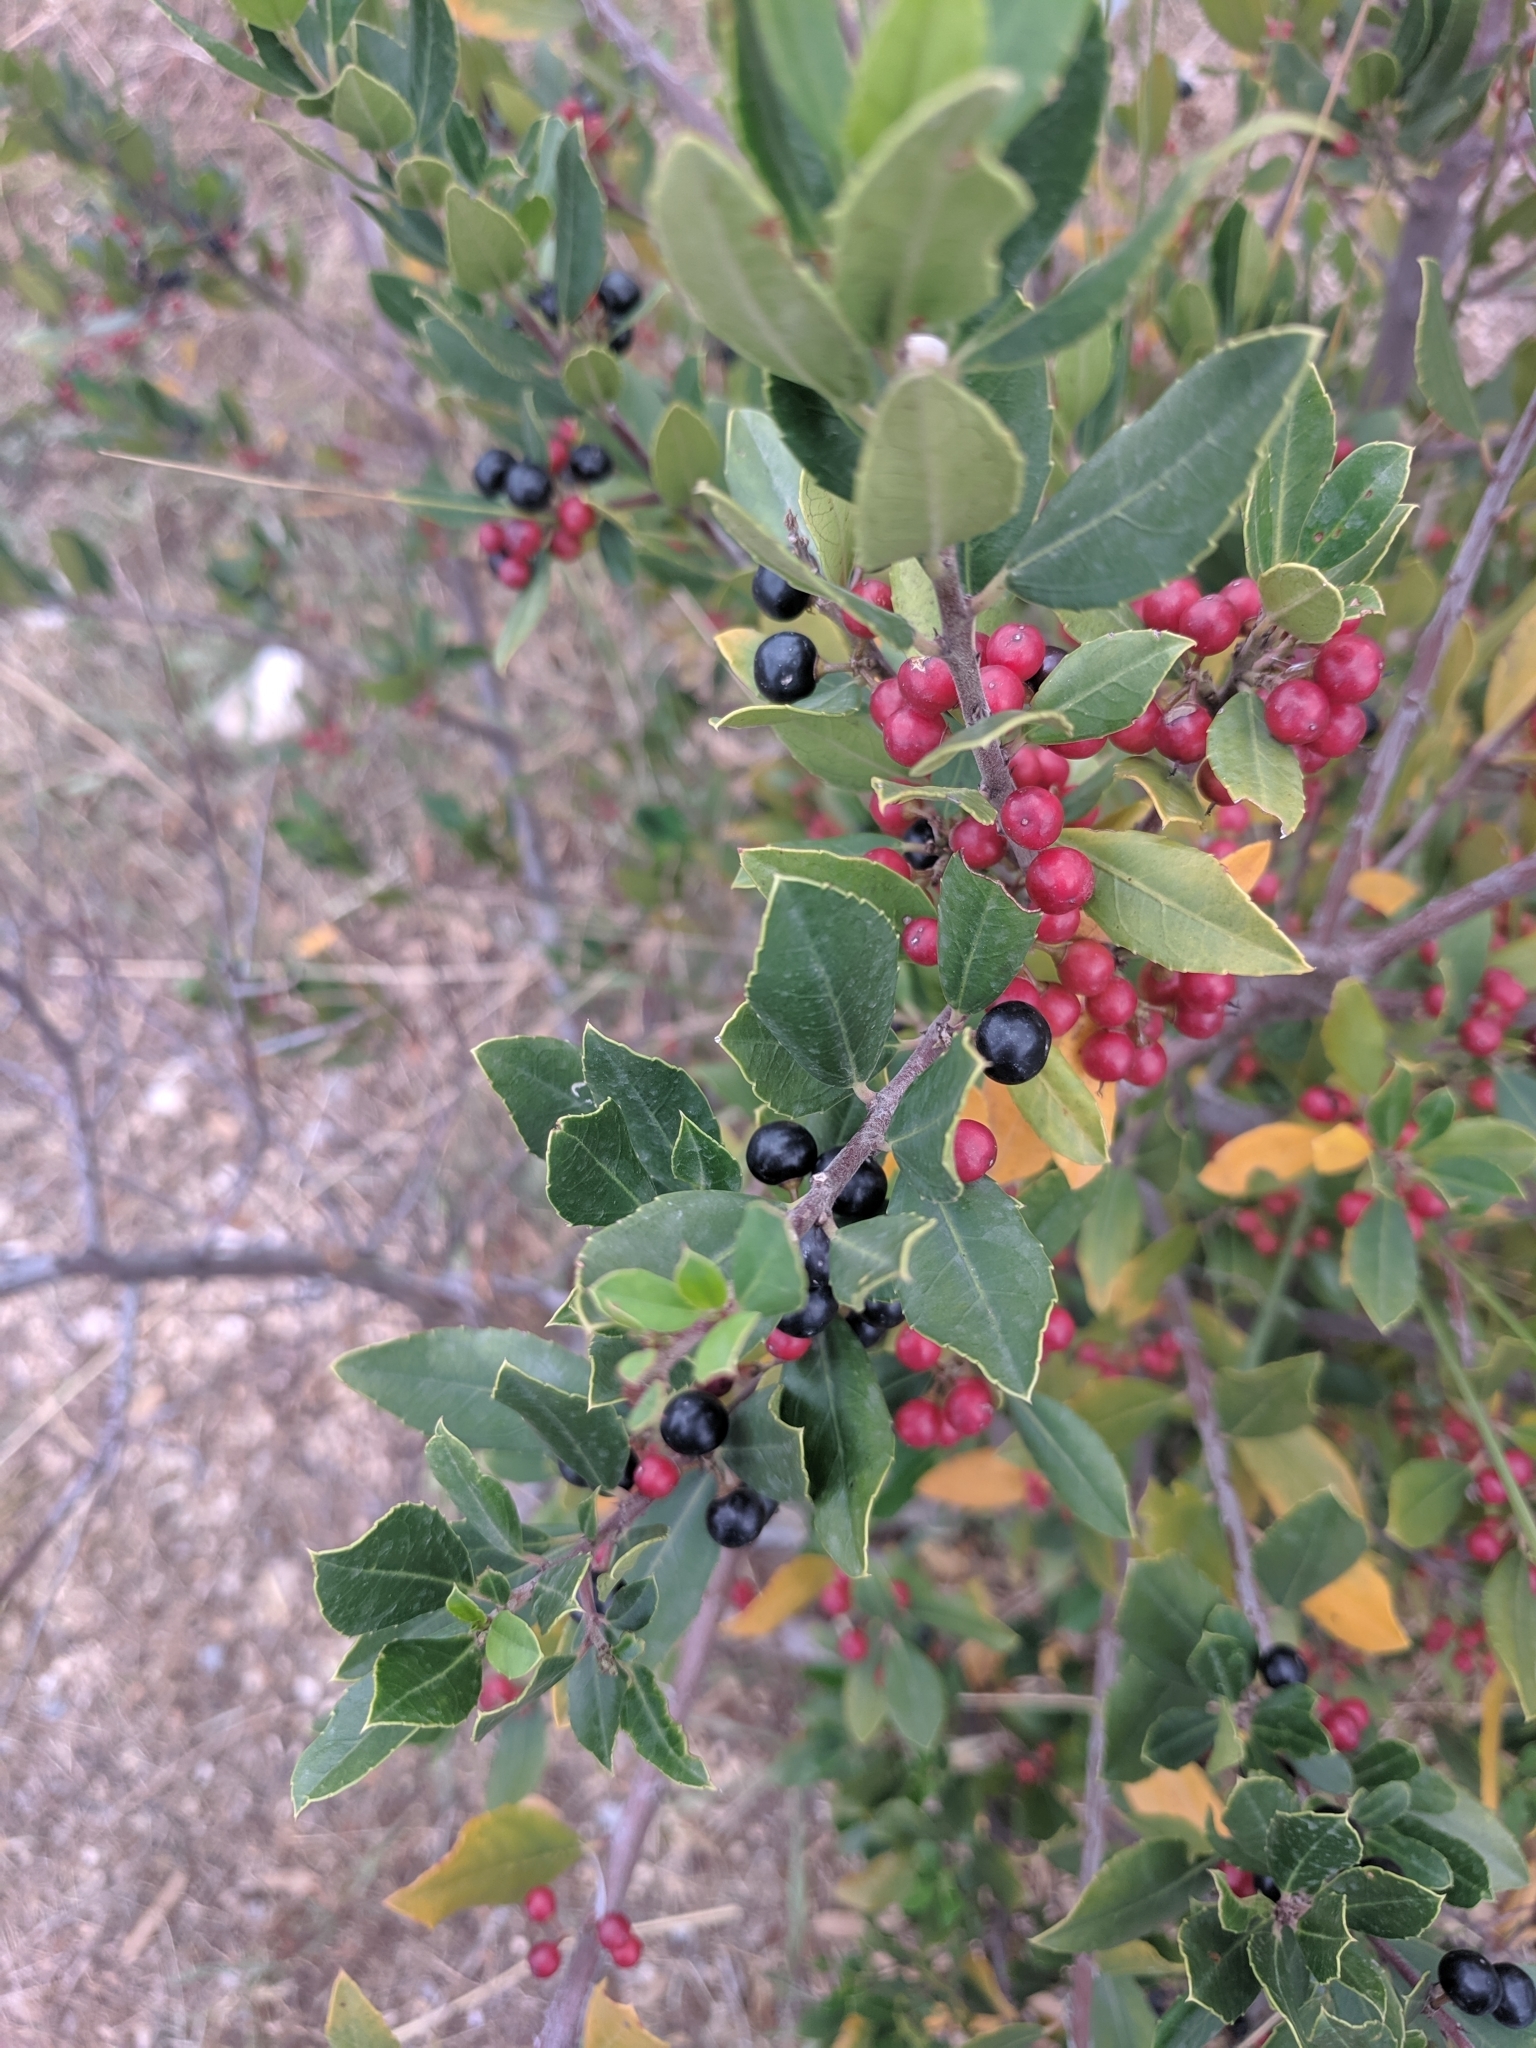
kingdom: Plantae
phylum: Tracheophyta
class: Magnoliopsida
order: Rosales
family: Rhamnaceae
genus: Rhamnus
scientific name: Rhamnus alaternus
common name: Mediterranean buckthorn
